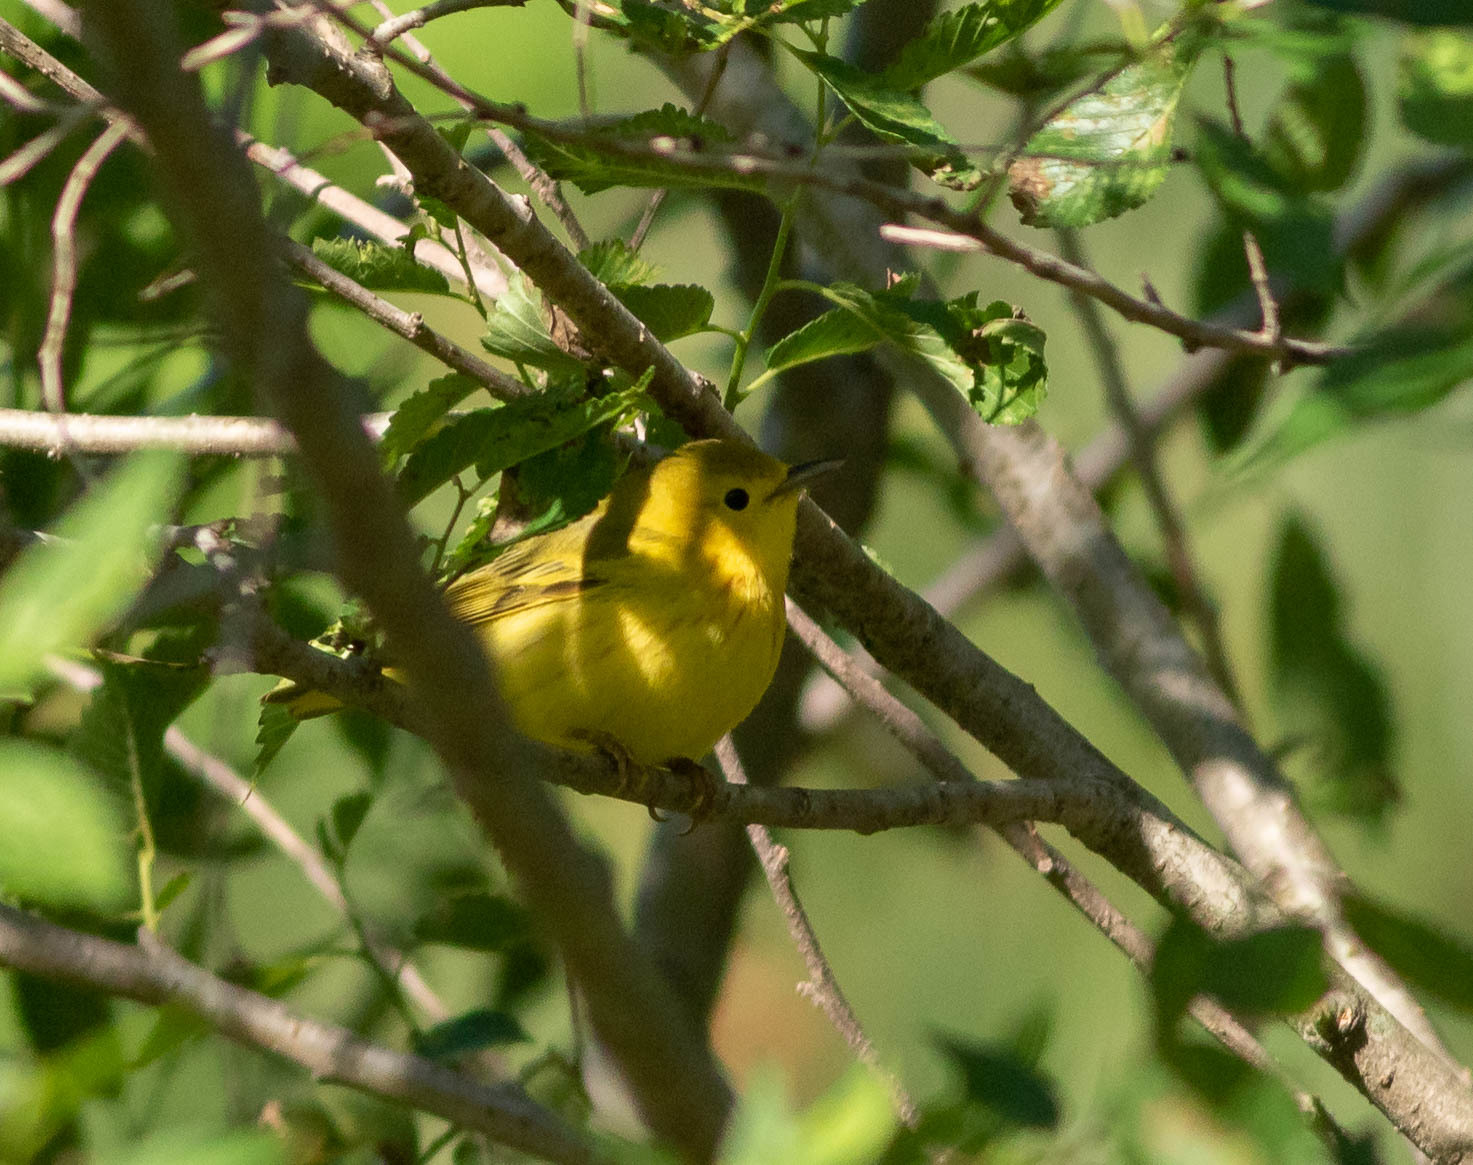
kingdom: Animalia
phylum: Chordata
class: Aves
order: Passeriformes
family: Parulidae
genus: Setophaga
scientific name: Setophaga petechia
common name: Yellow warbler
